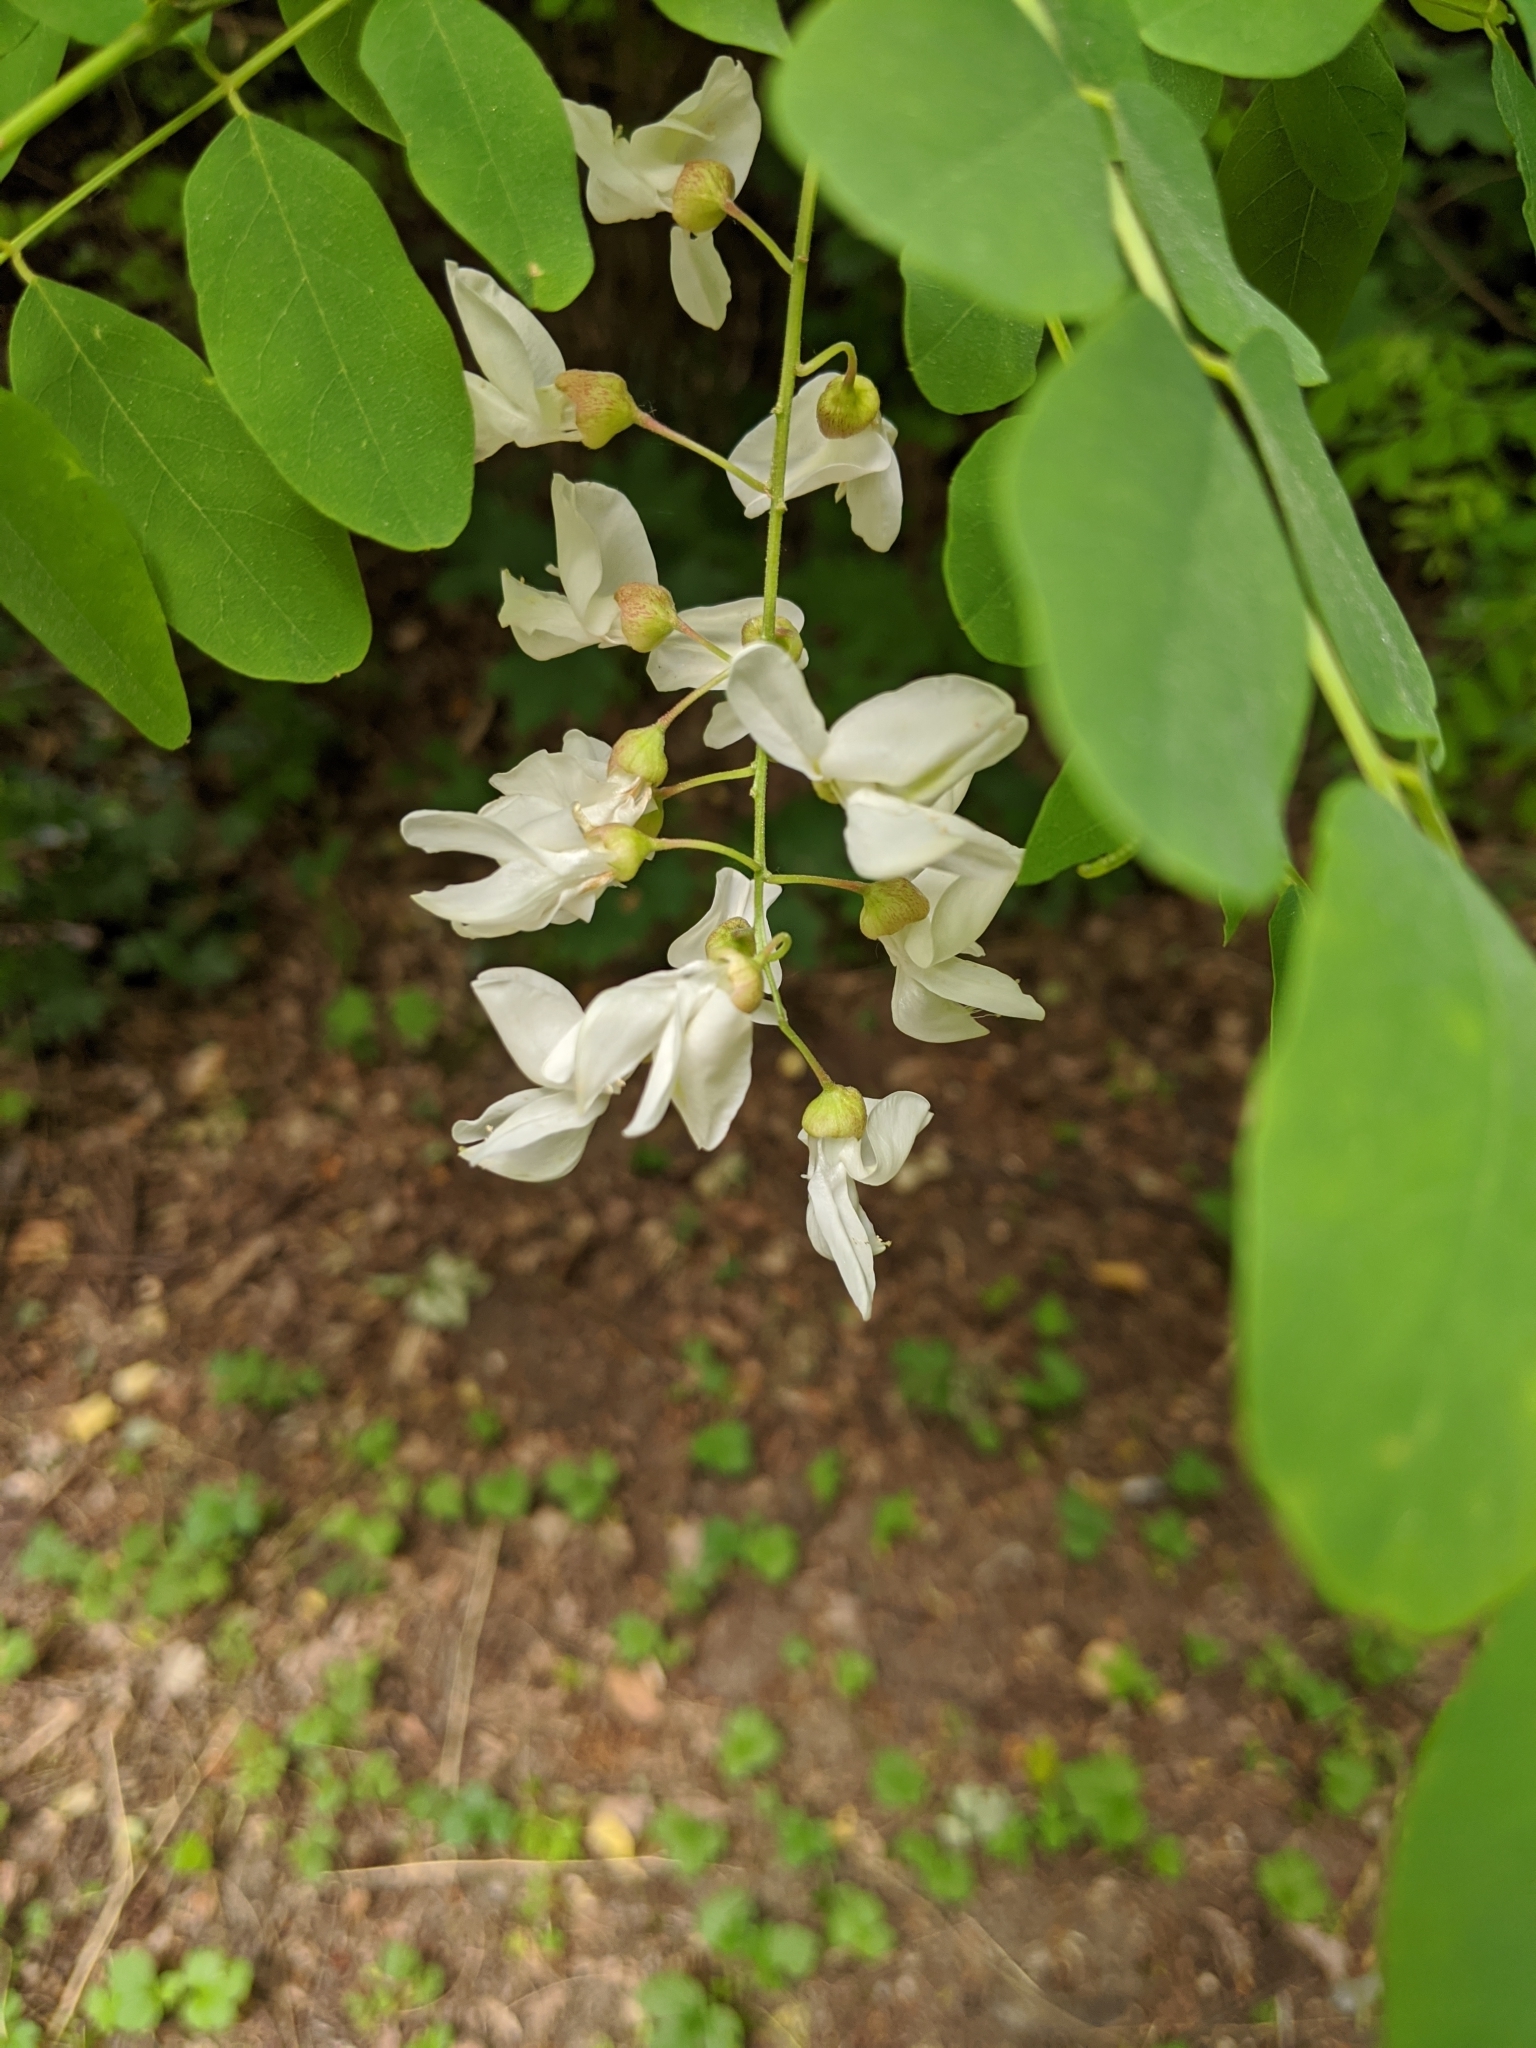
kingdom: Plantae
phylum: Tracheophyta
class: Magnoliopsida
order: Fabales
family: Fabaceae
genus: Robinia
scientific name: Robinia pseudoacacia
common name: Black locust
